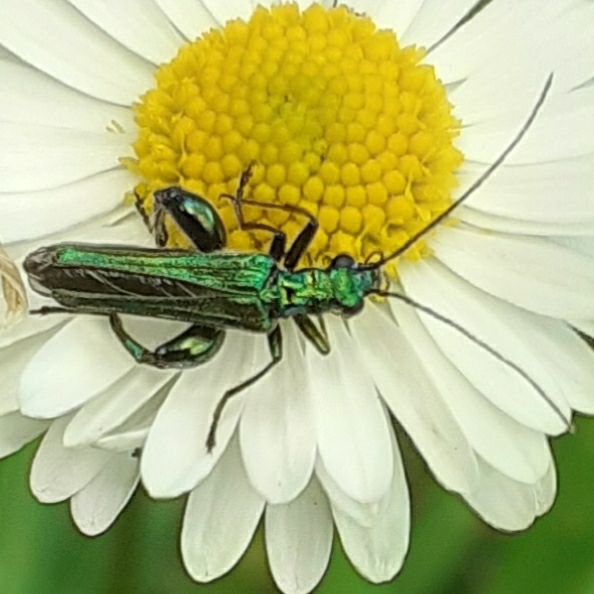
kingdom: Animalia
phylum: Arthropoda
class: Insecta
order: Coleoptera
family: Oedemeridae
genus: Oedemera
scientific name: Oedemera nobilis
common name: Swollen-thighed beetle
